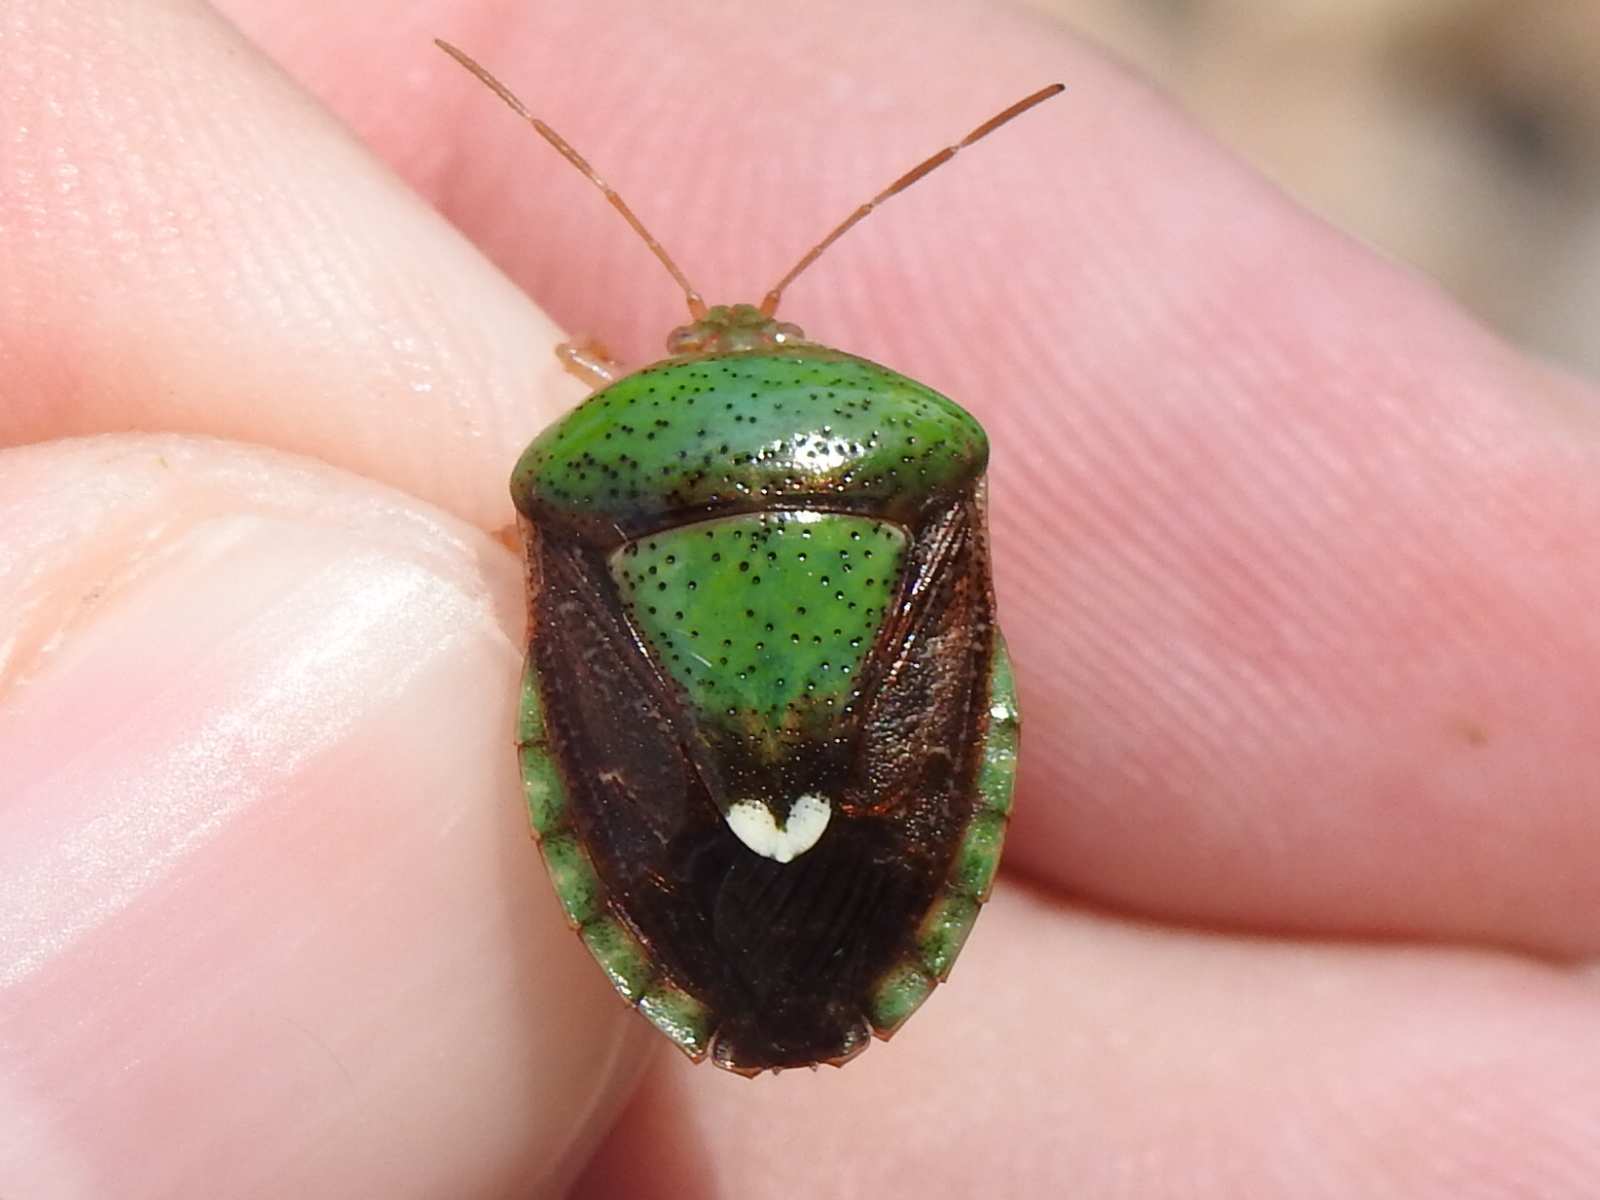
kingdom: Animalia
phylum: Arthropoda
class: Insecta
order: Hemiptera
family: Pentatomidae
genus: Edessa
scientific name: Edessa bifida
